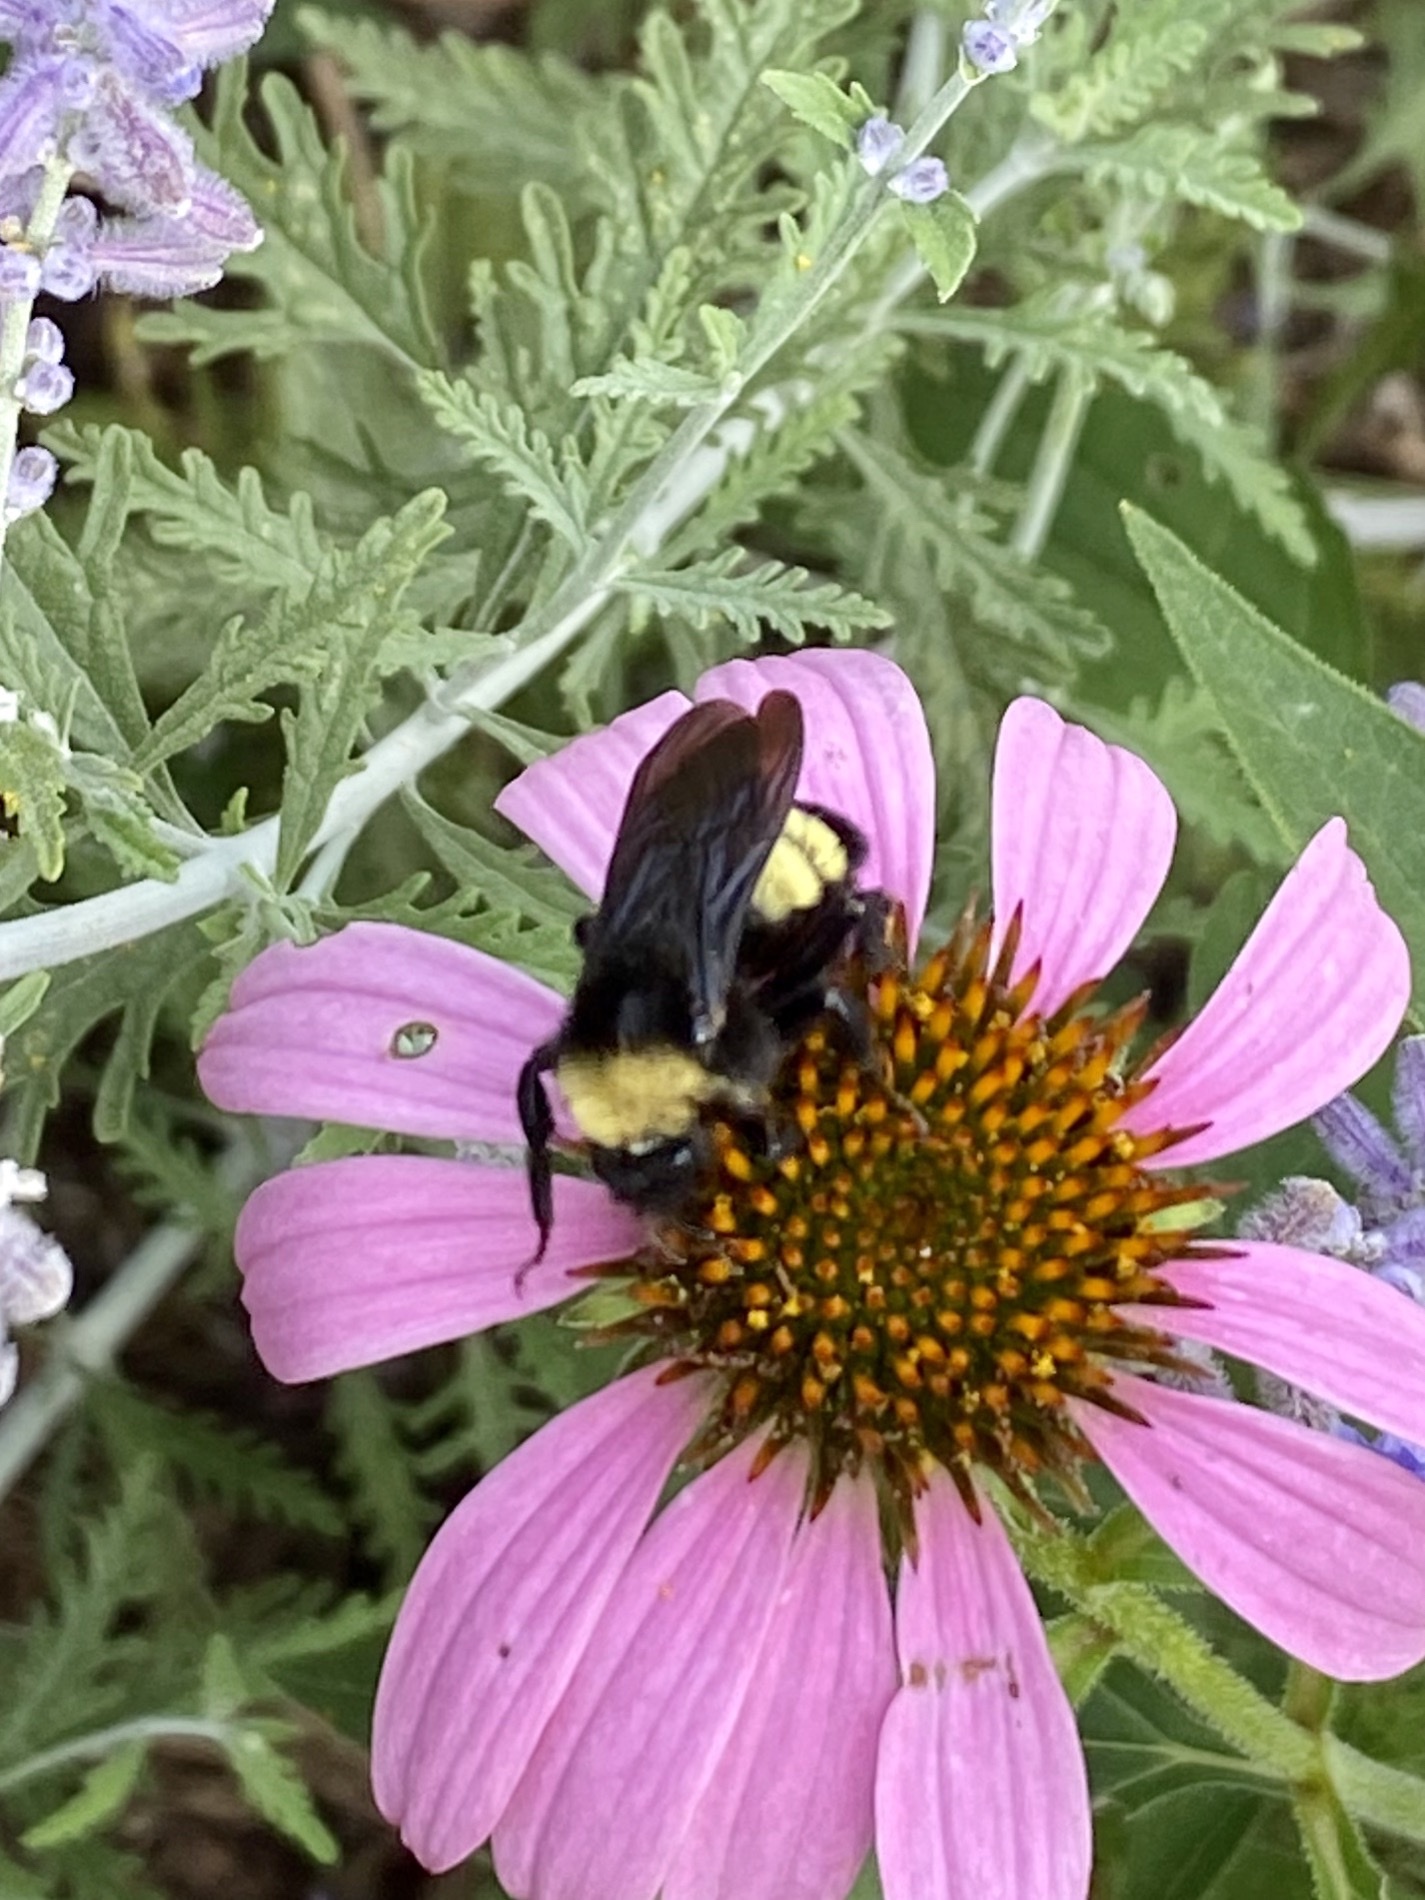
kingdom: Animalia
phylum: Arthropoda
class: Insecta
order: Hymenoptera
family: Apidae
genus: Bombus
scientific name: Bombus pensylvanicus
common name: Bumble bee
